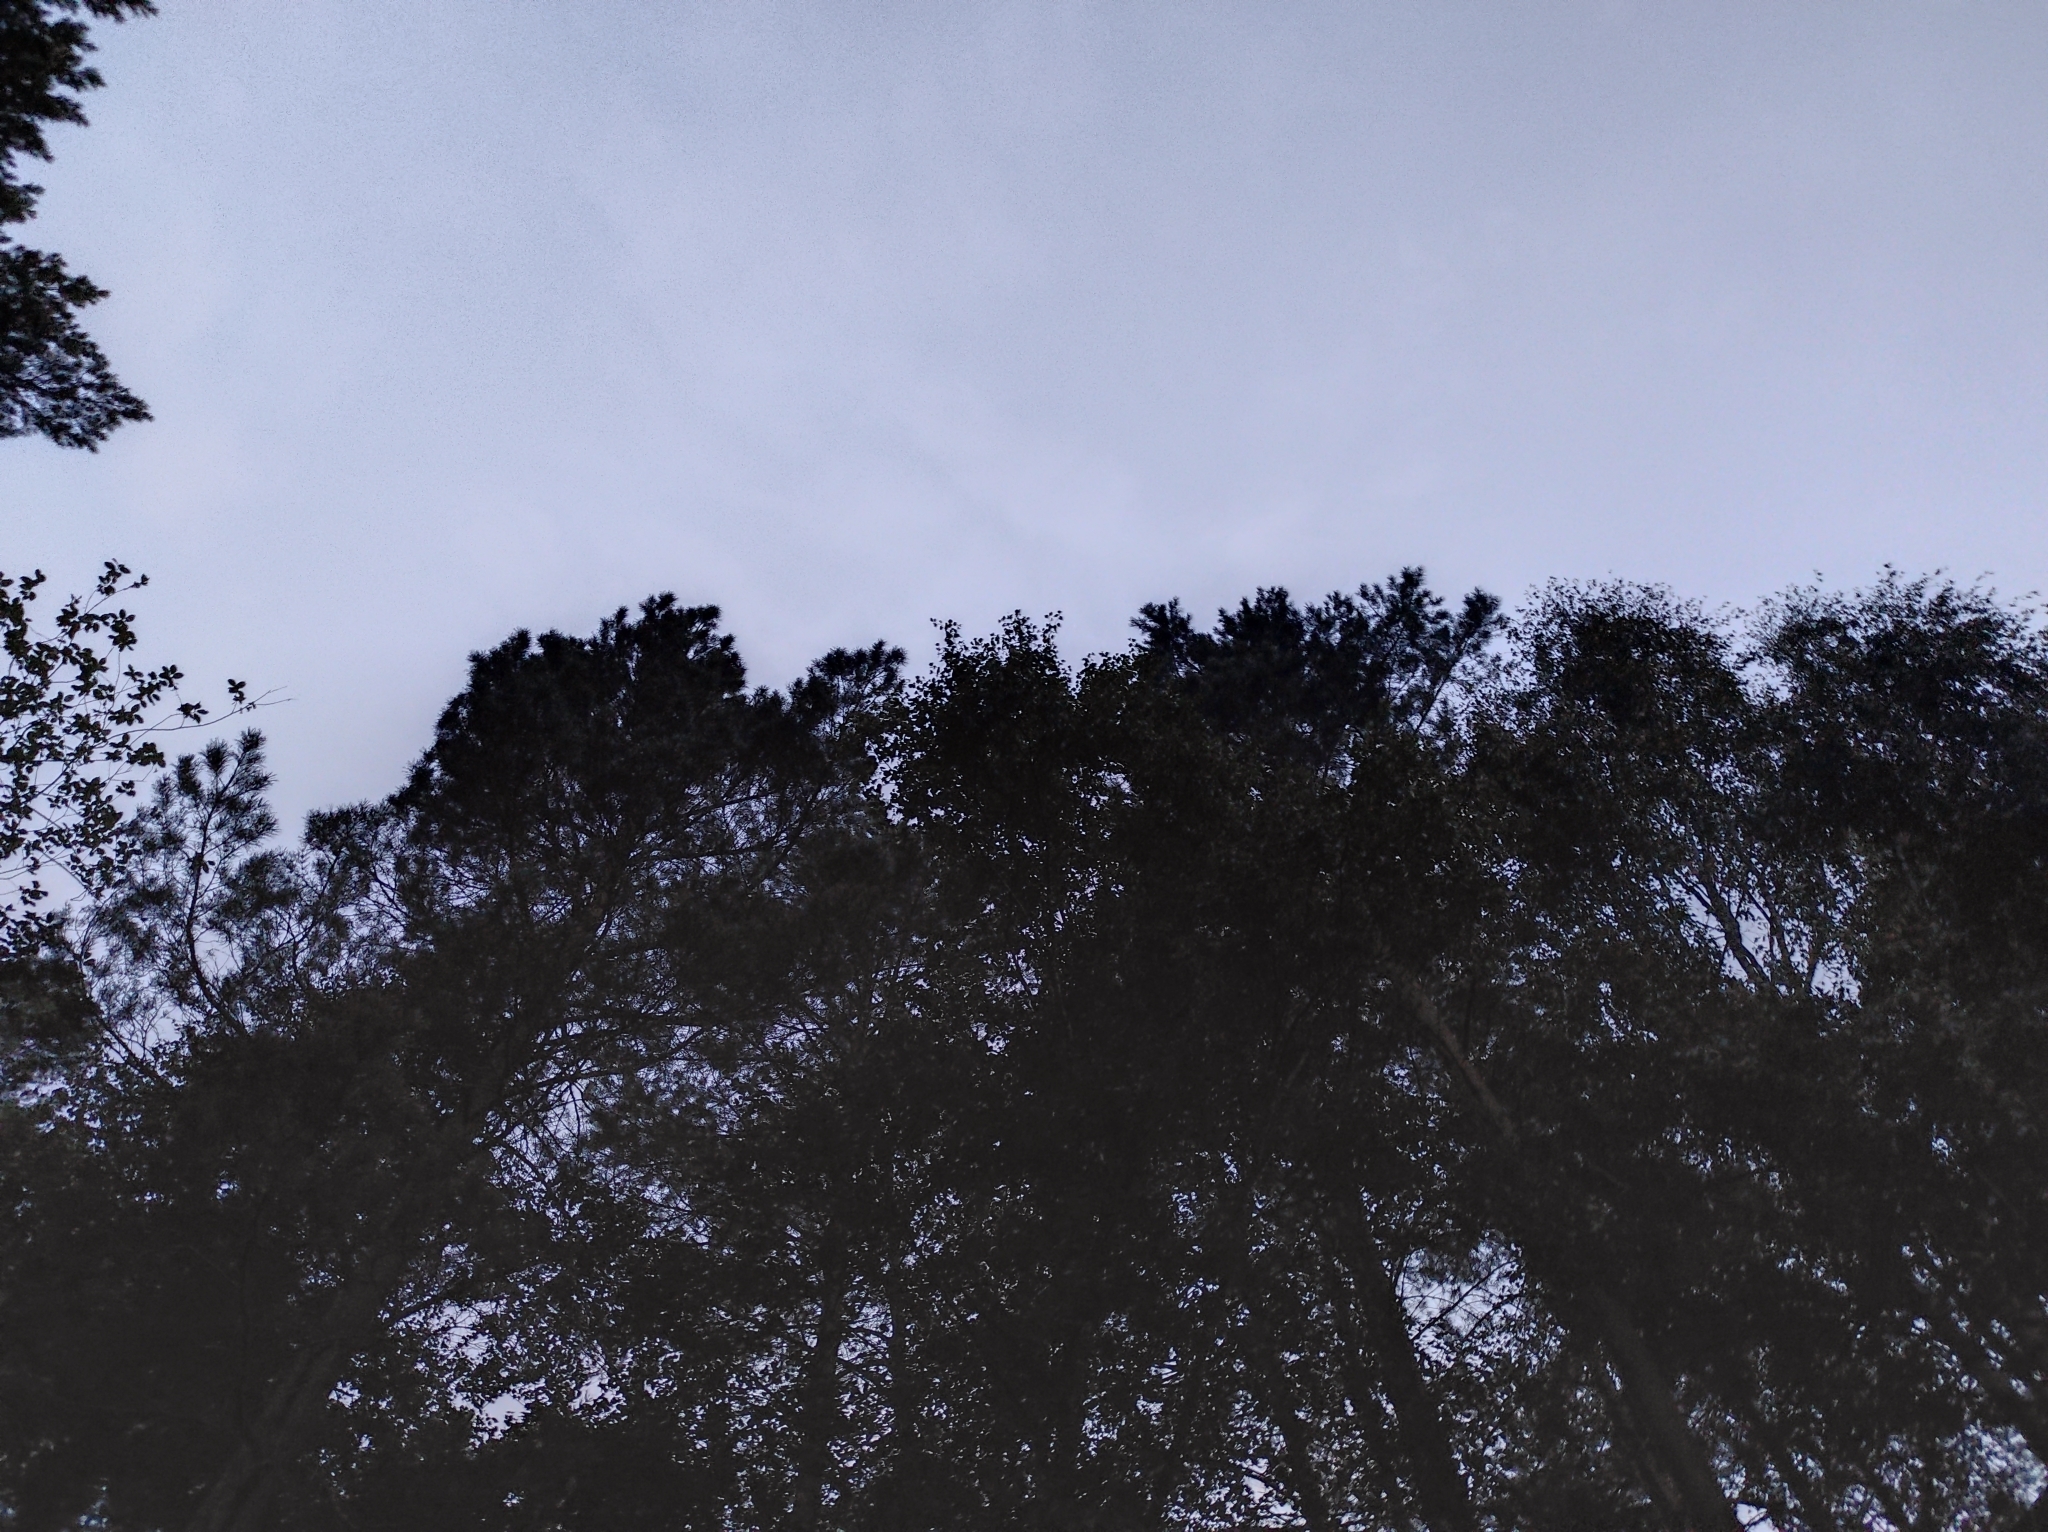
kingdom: Plantae
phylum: Tracheophyta
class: Pinopsida
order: Pinales
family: Pinaceae
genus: Pinus
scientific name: Pinus sylvestris
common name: Scots pine
